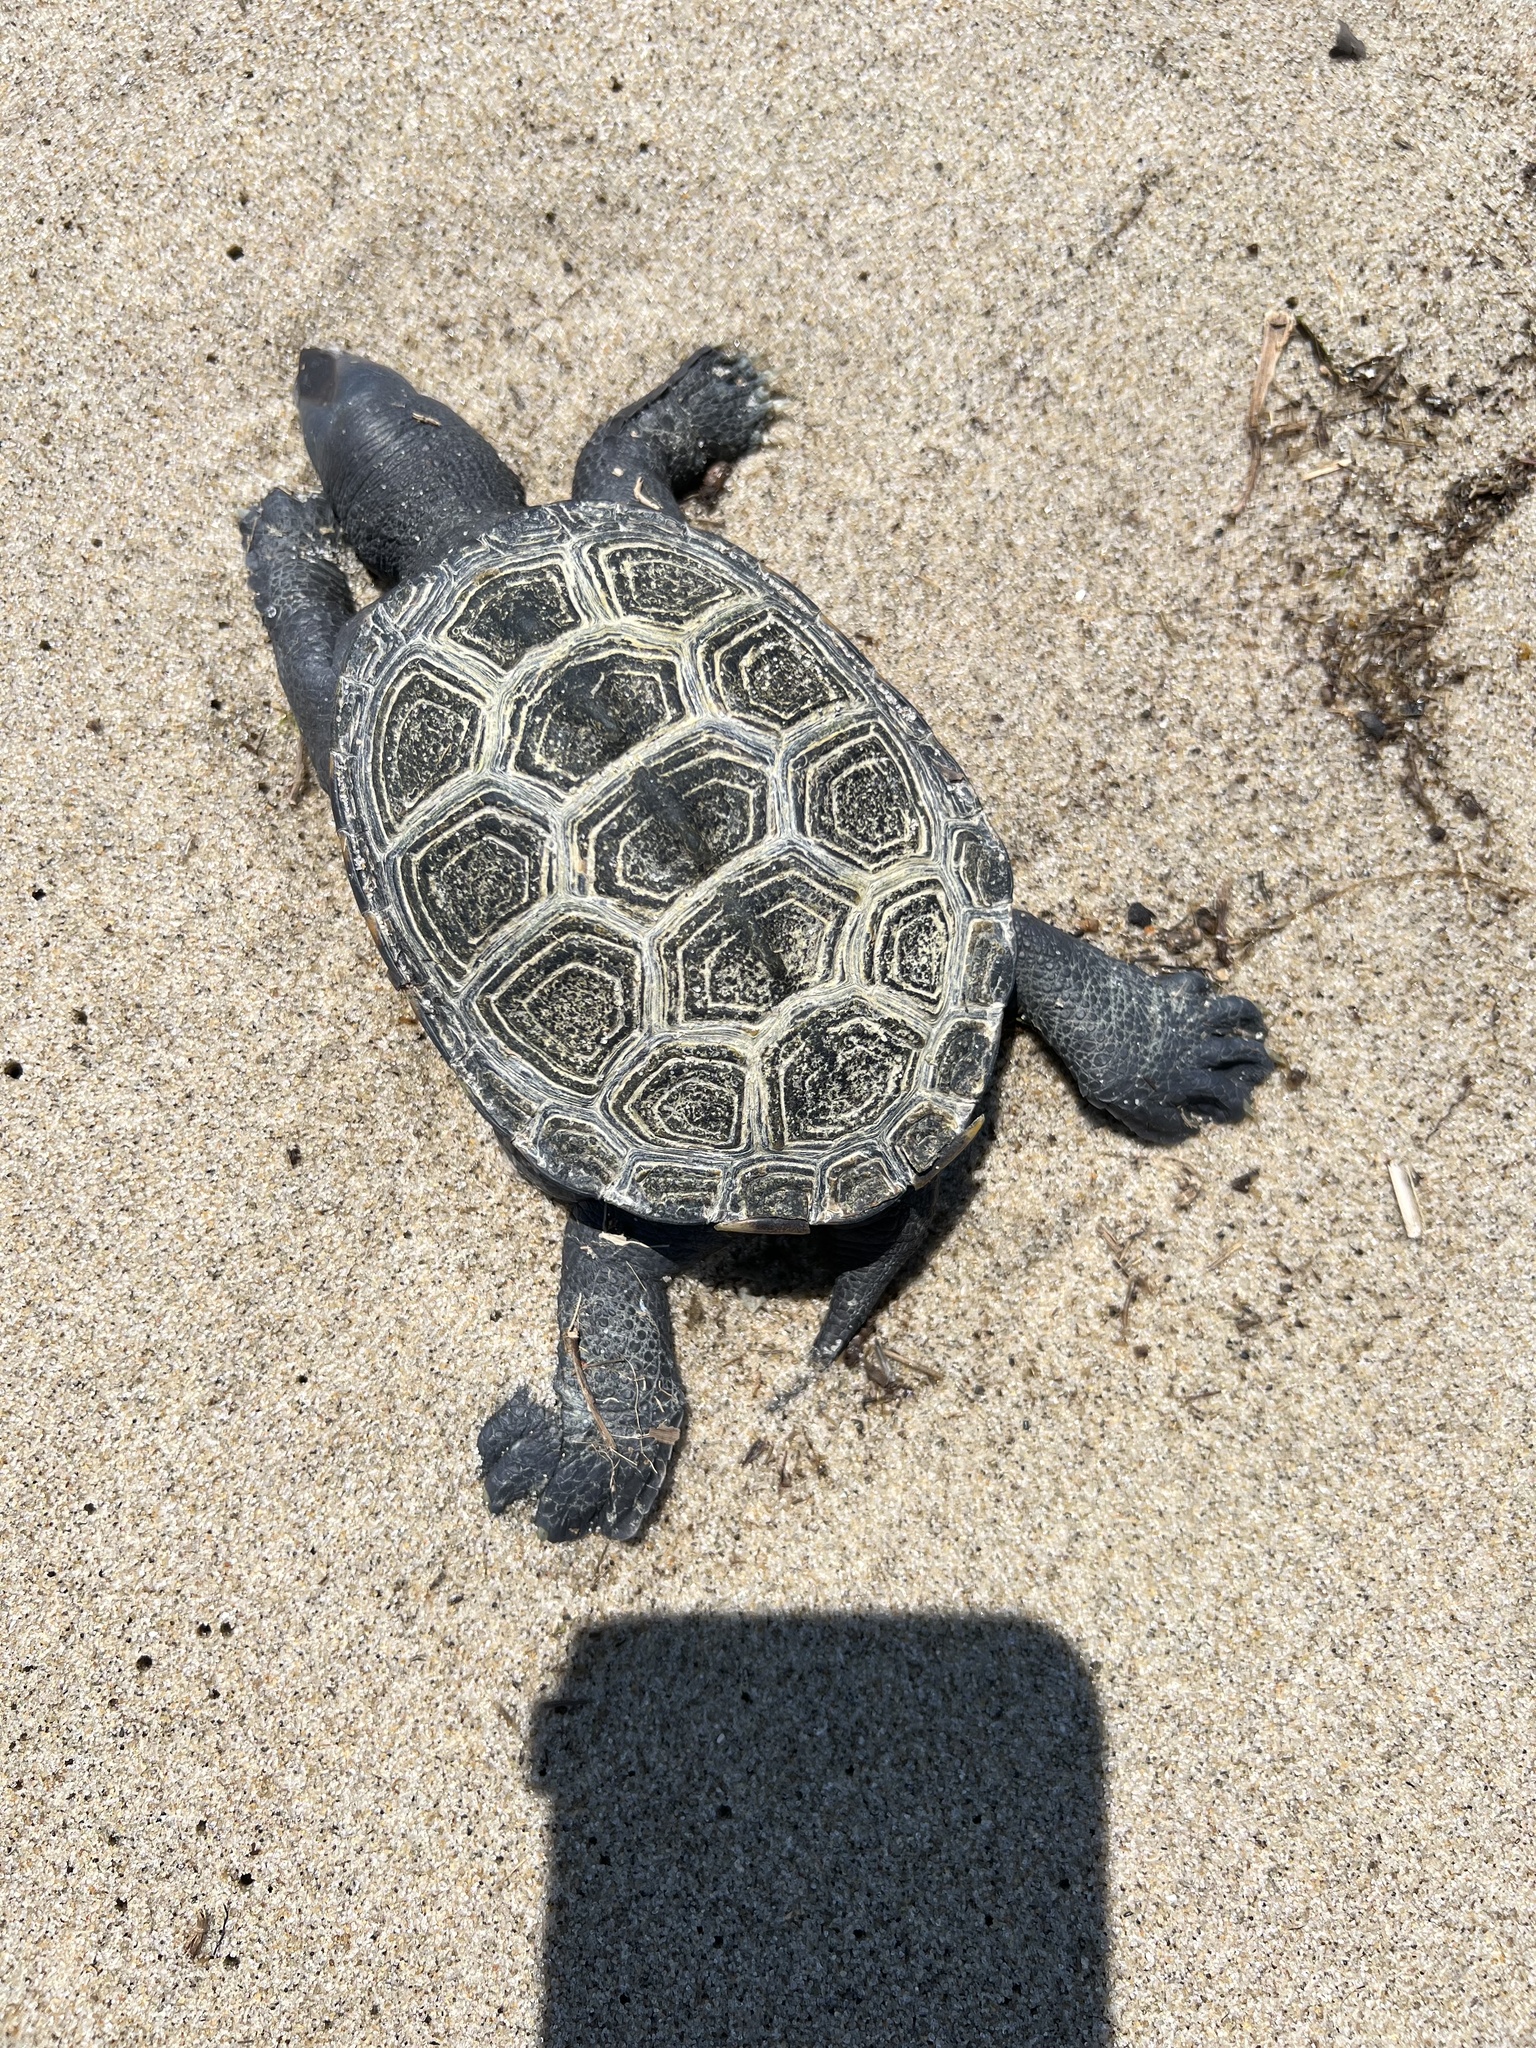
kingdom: Animalia
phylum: Chordata
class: Testudines
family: Emydidae
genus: Malaclemys
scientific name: Malaclemys terrapin
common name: Diamondback terrapin
